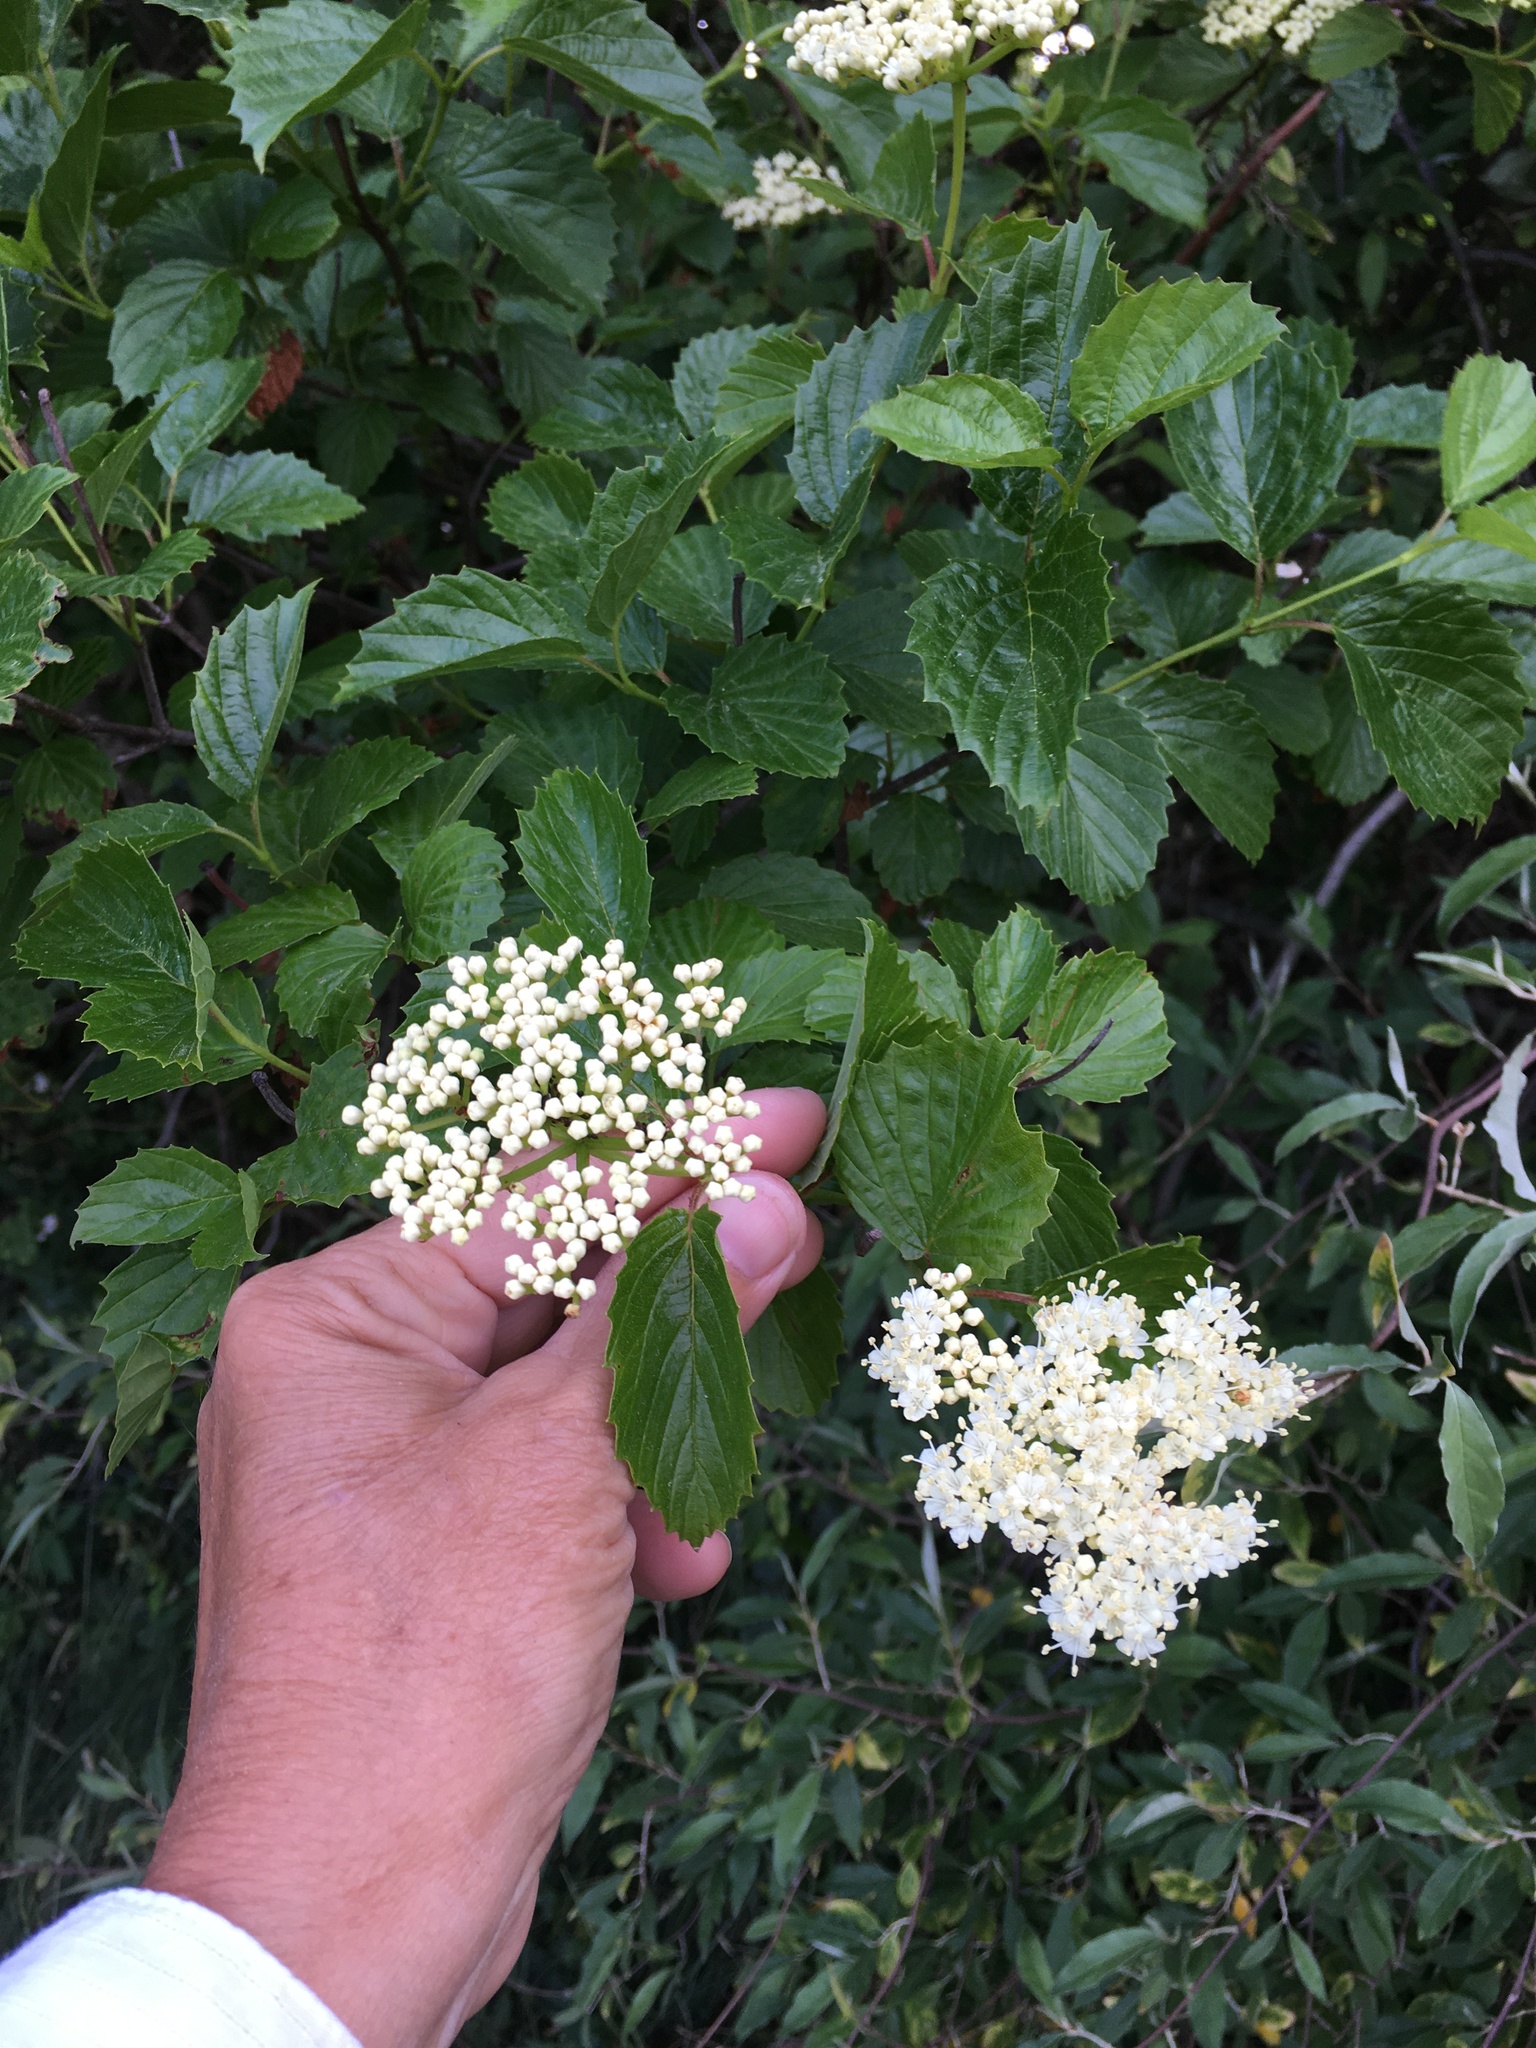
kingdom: Plantae
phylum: Tracheophyta
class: Magnoliopsida
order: Dipsacales
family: Viburnaceae
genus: Viburnum
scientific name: Viburnum dentatum
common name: Arrow-wood
